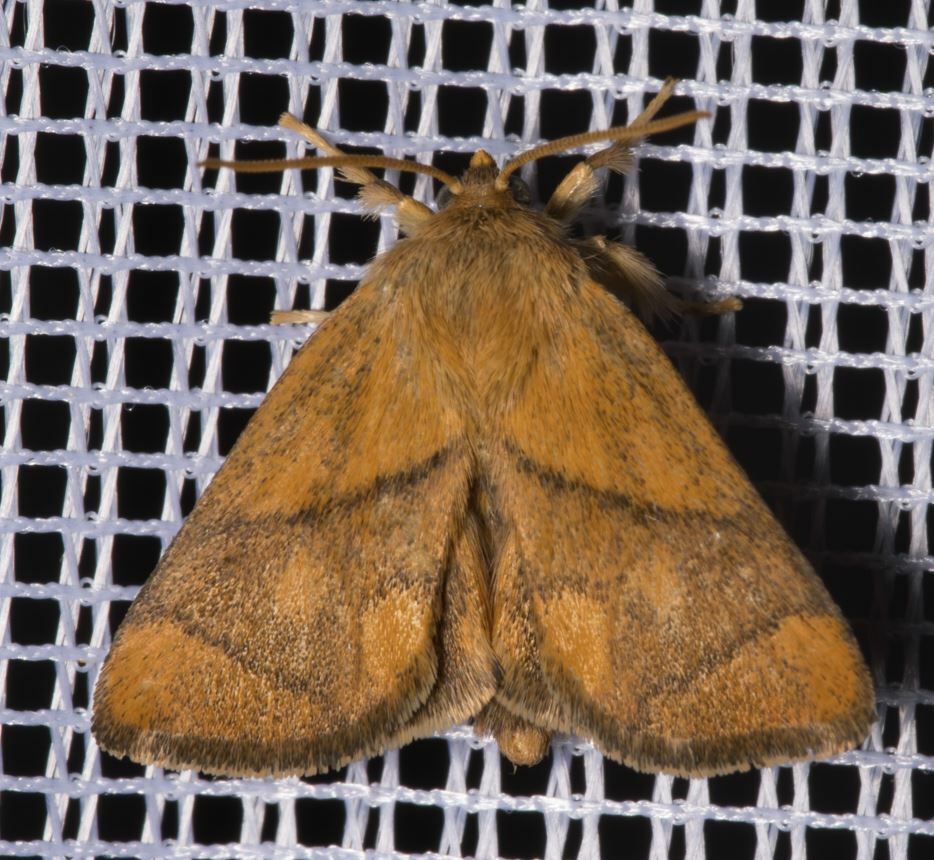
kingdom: Animalia
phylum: Arthropoda
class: Insecta
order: Lepidoptera
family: Limacodidae
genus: Apoda
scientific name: Apoda limacodes
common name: Festoon
